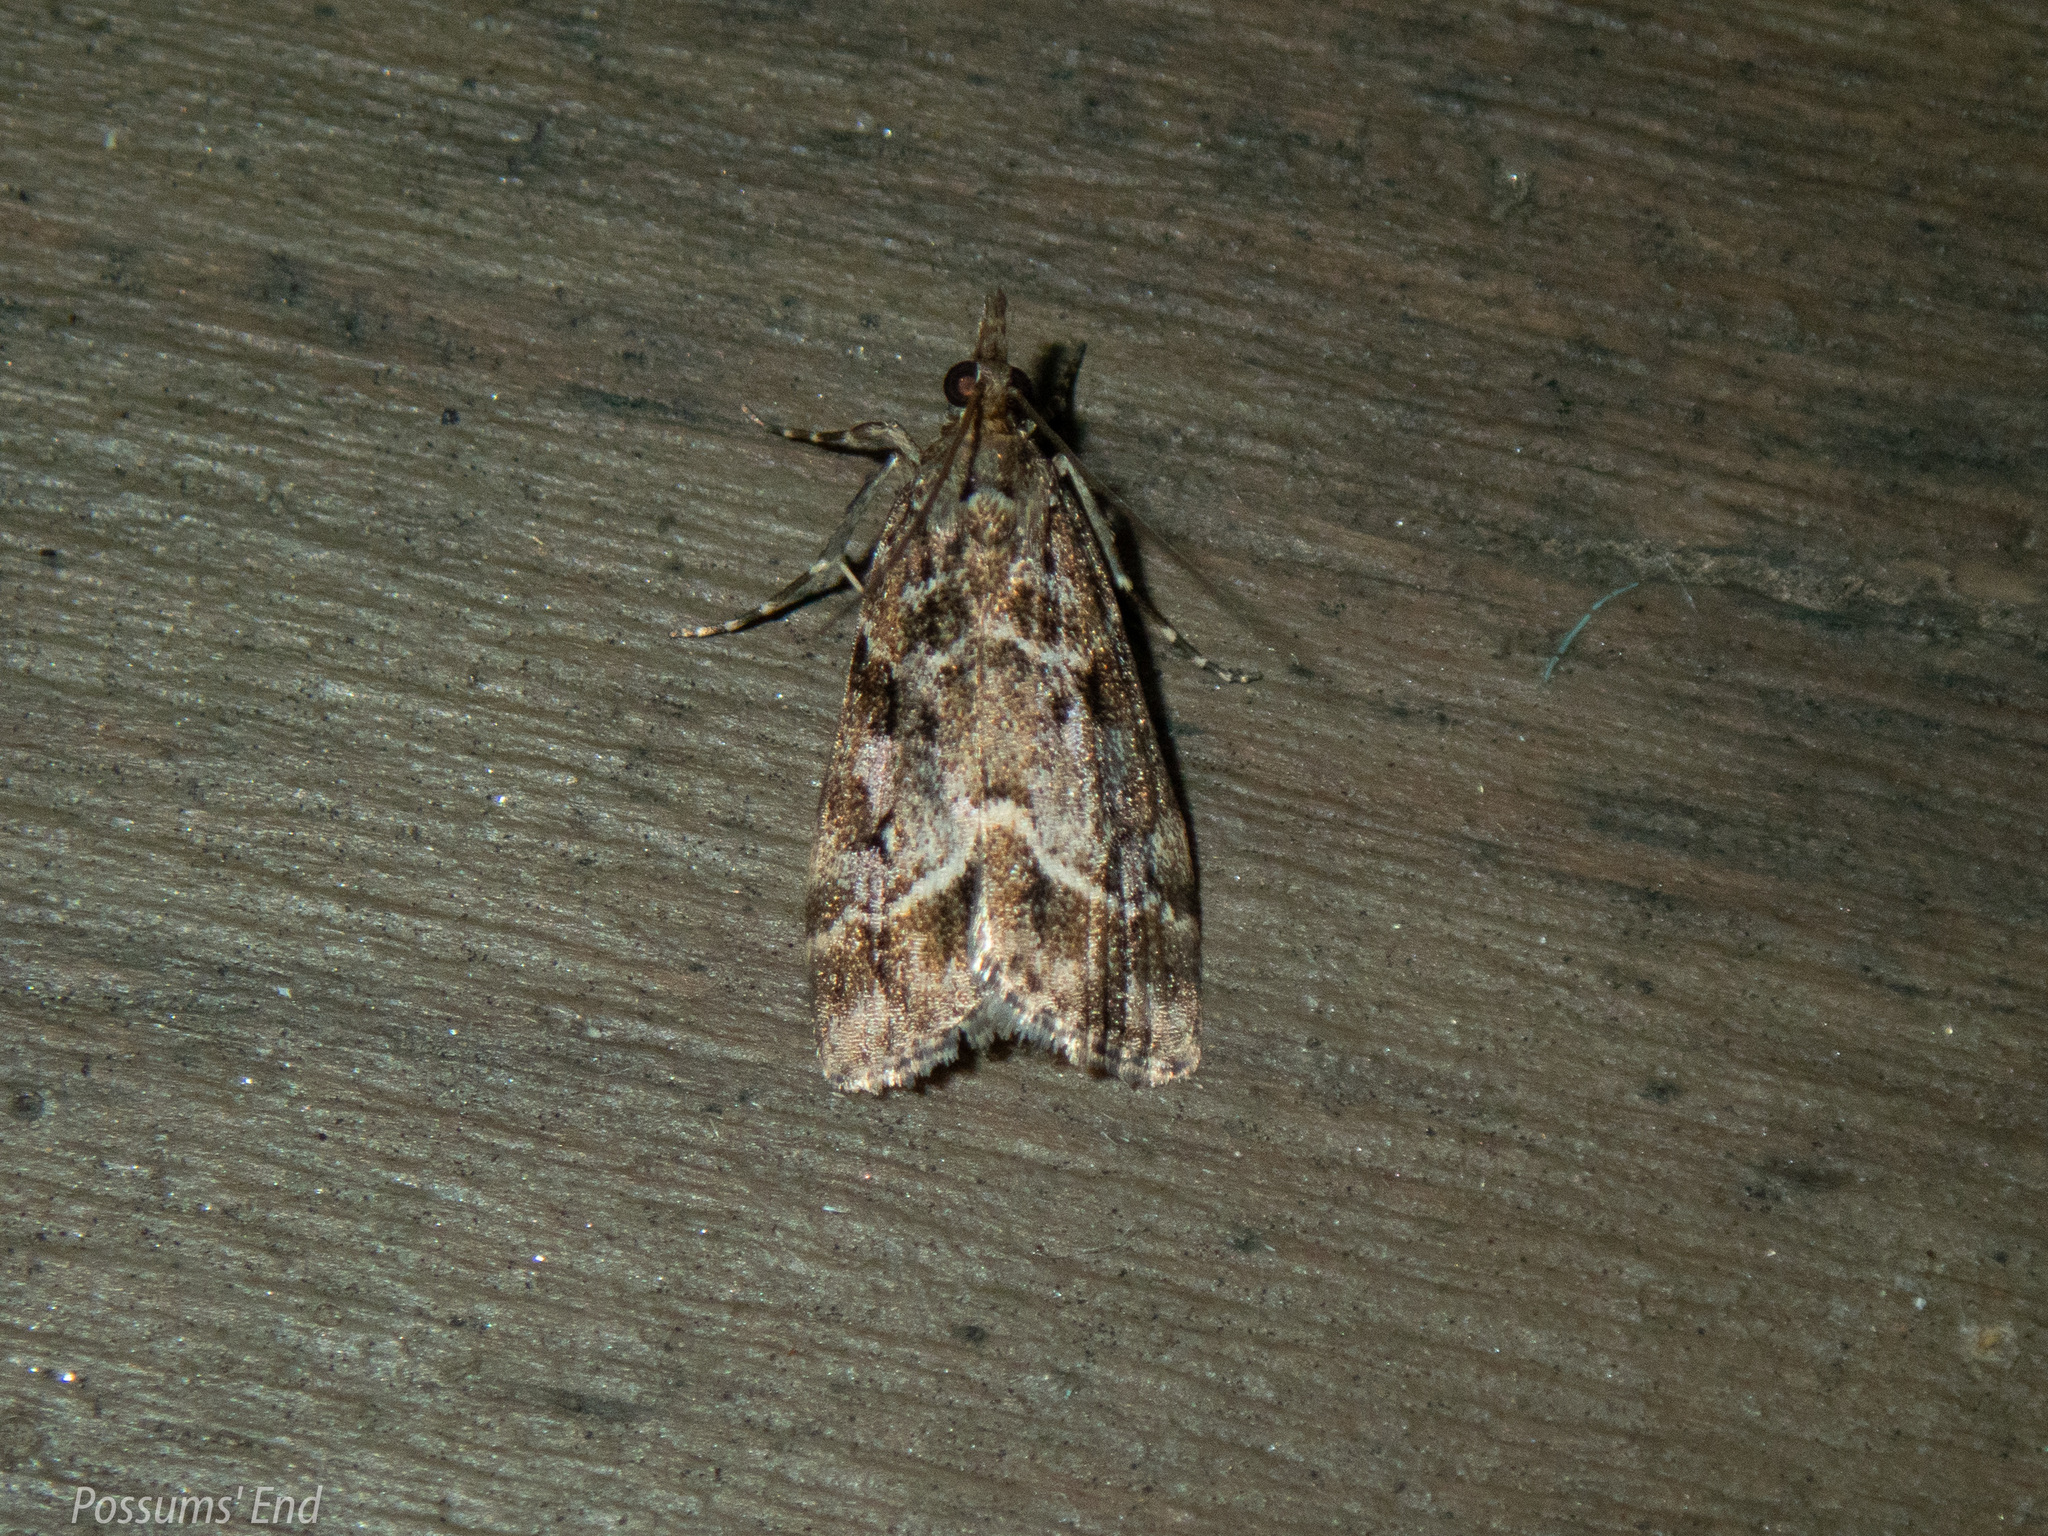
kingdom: Animalia
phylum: Arthropoda
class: Insecta
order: Lepidoptera
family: Crambidae
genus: Eudonia
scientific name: Eudonia luminatrix
